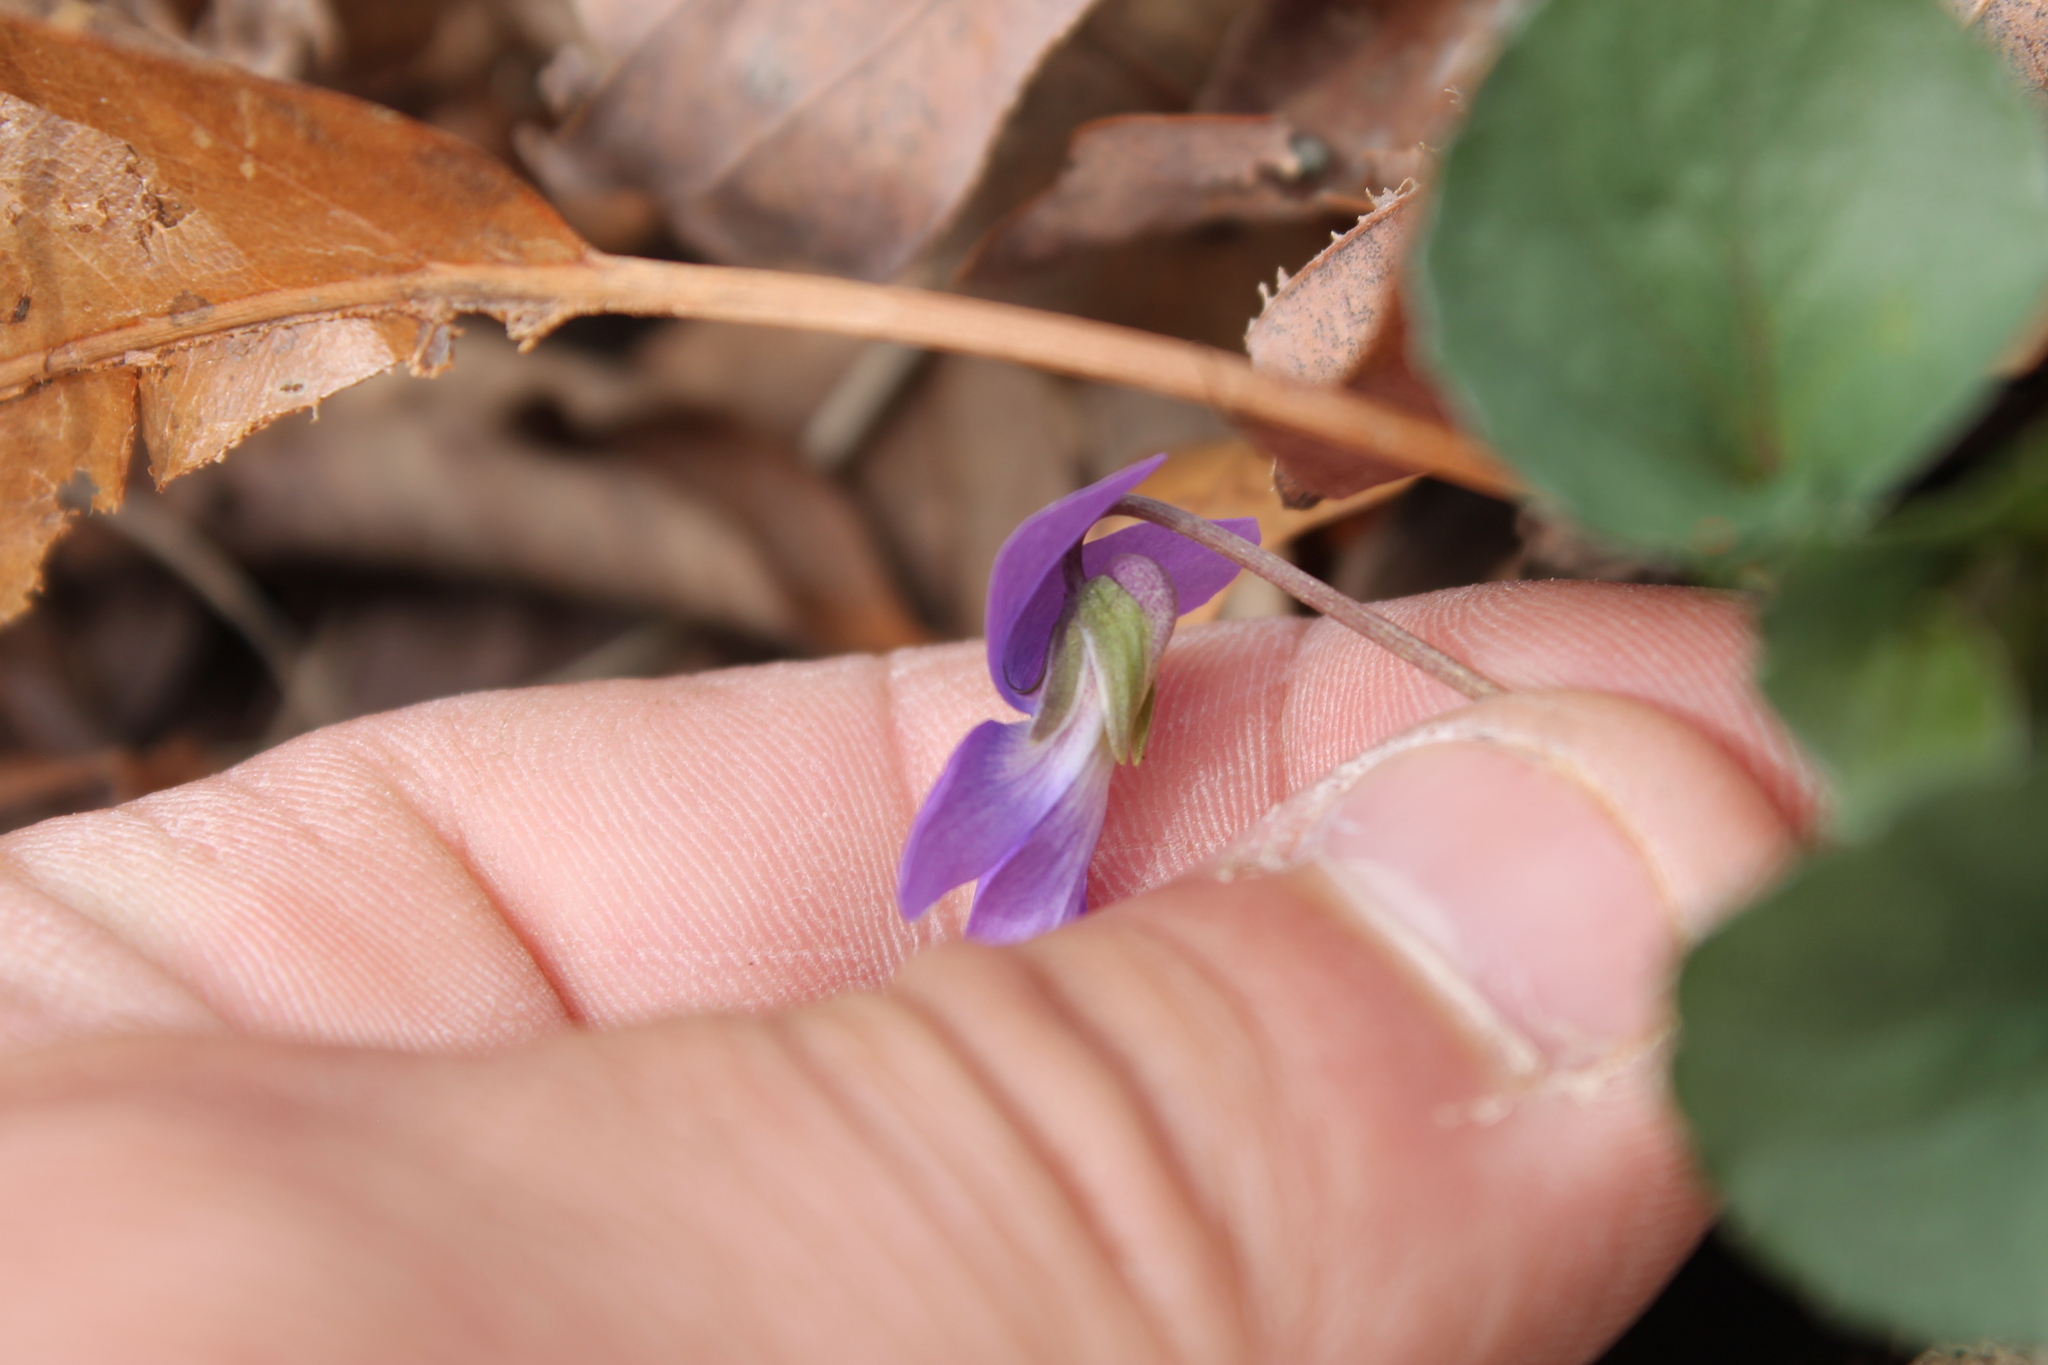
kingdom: Plantae
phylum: Tracheophyta
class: Magnoliopsida
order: Malpighiales
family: Violaceae
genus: Viola
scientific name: Viola sororia
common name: Dooryard violet
